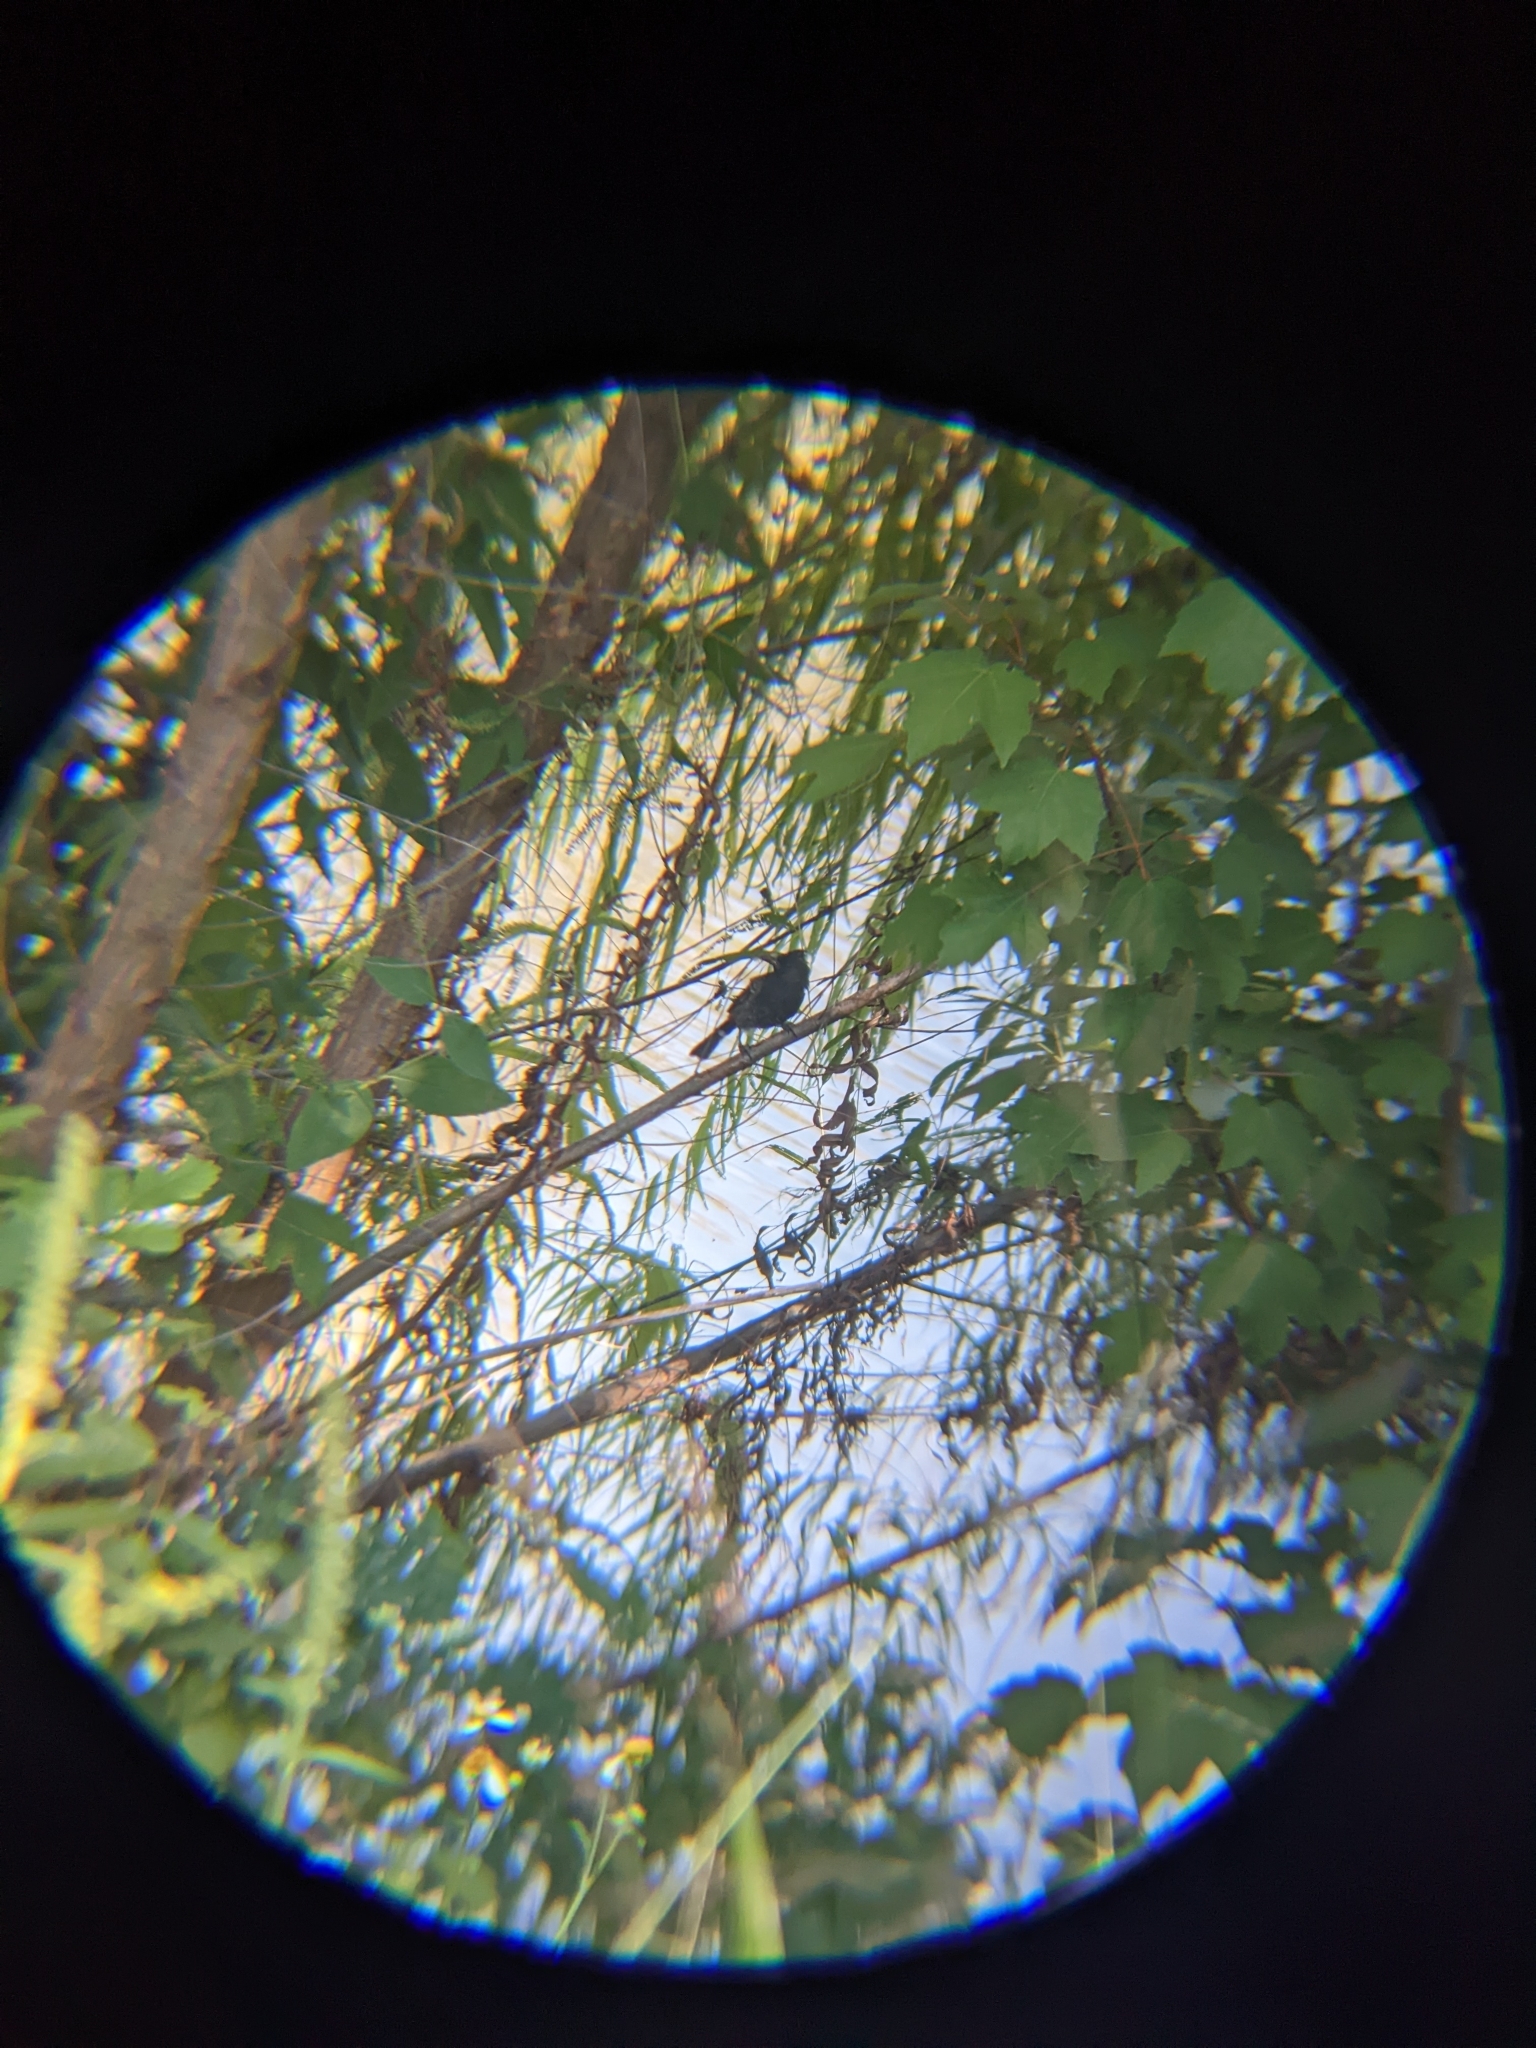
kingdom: Animalia
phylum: Chordata
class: Aves
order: Passeriformes
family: Pycnonotidae
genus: Pycnonotus
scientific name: Pycnonotus cafer
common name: Red-vented bulbul
